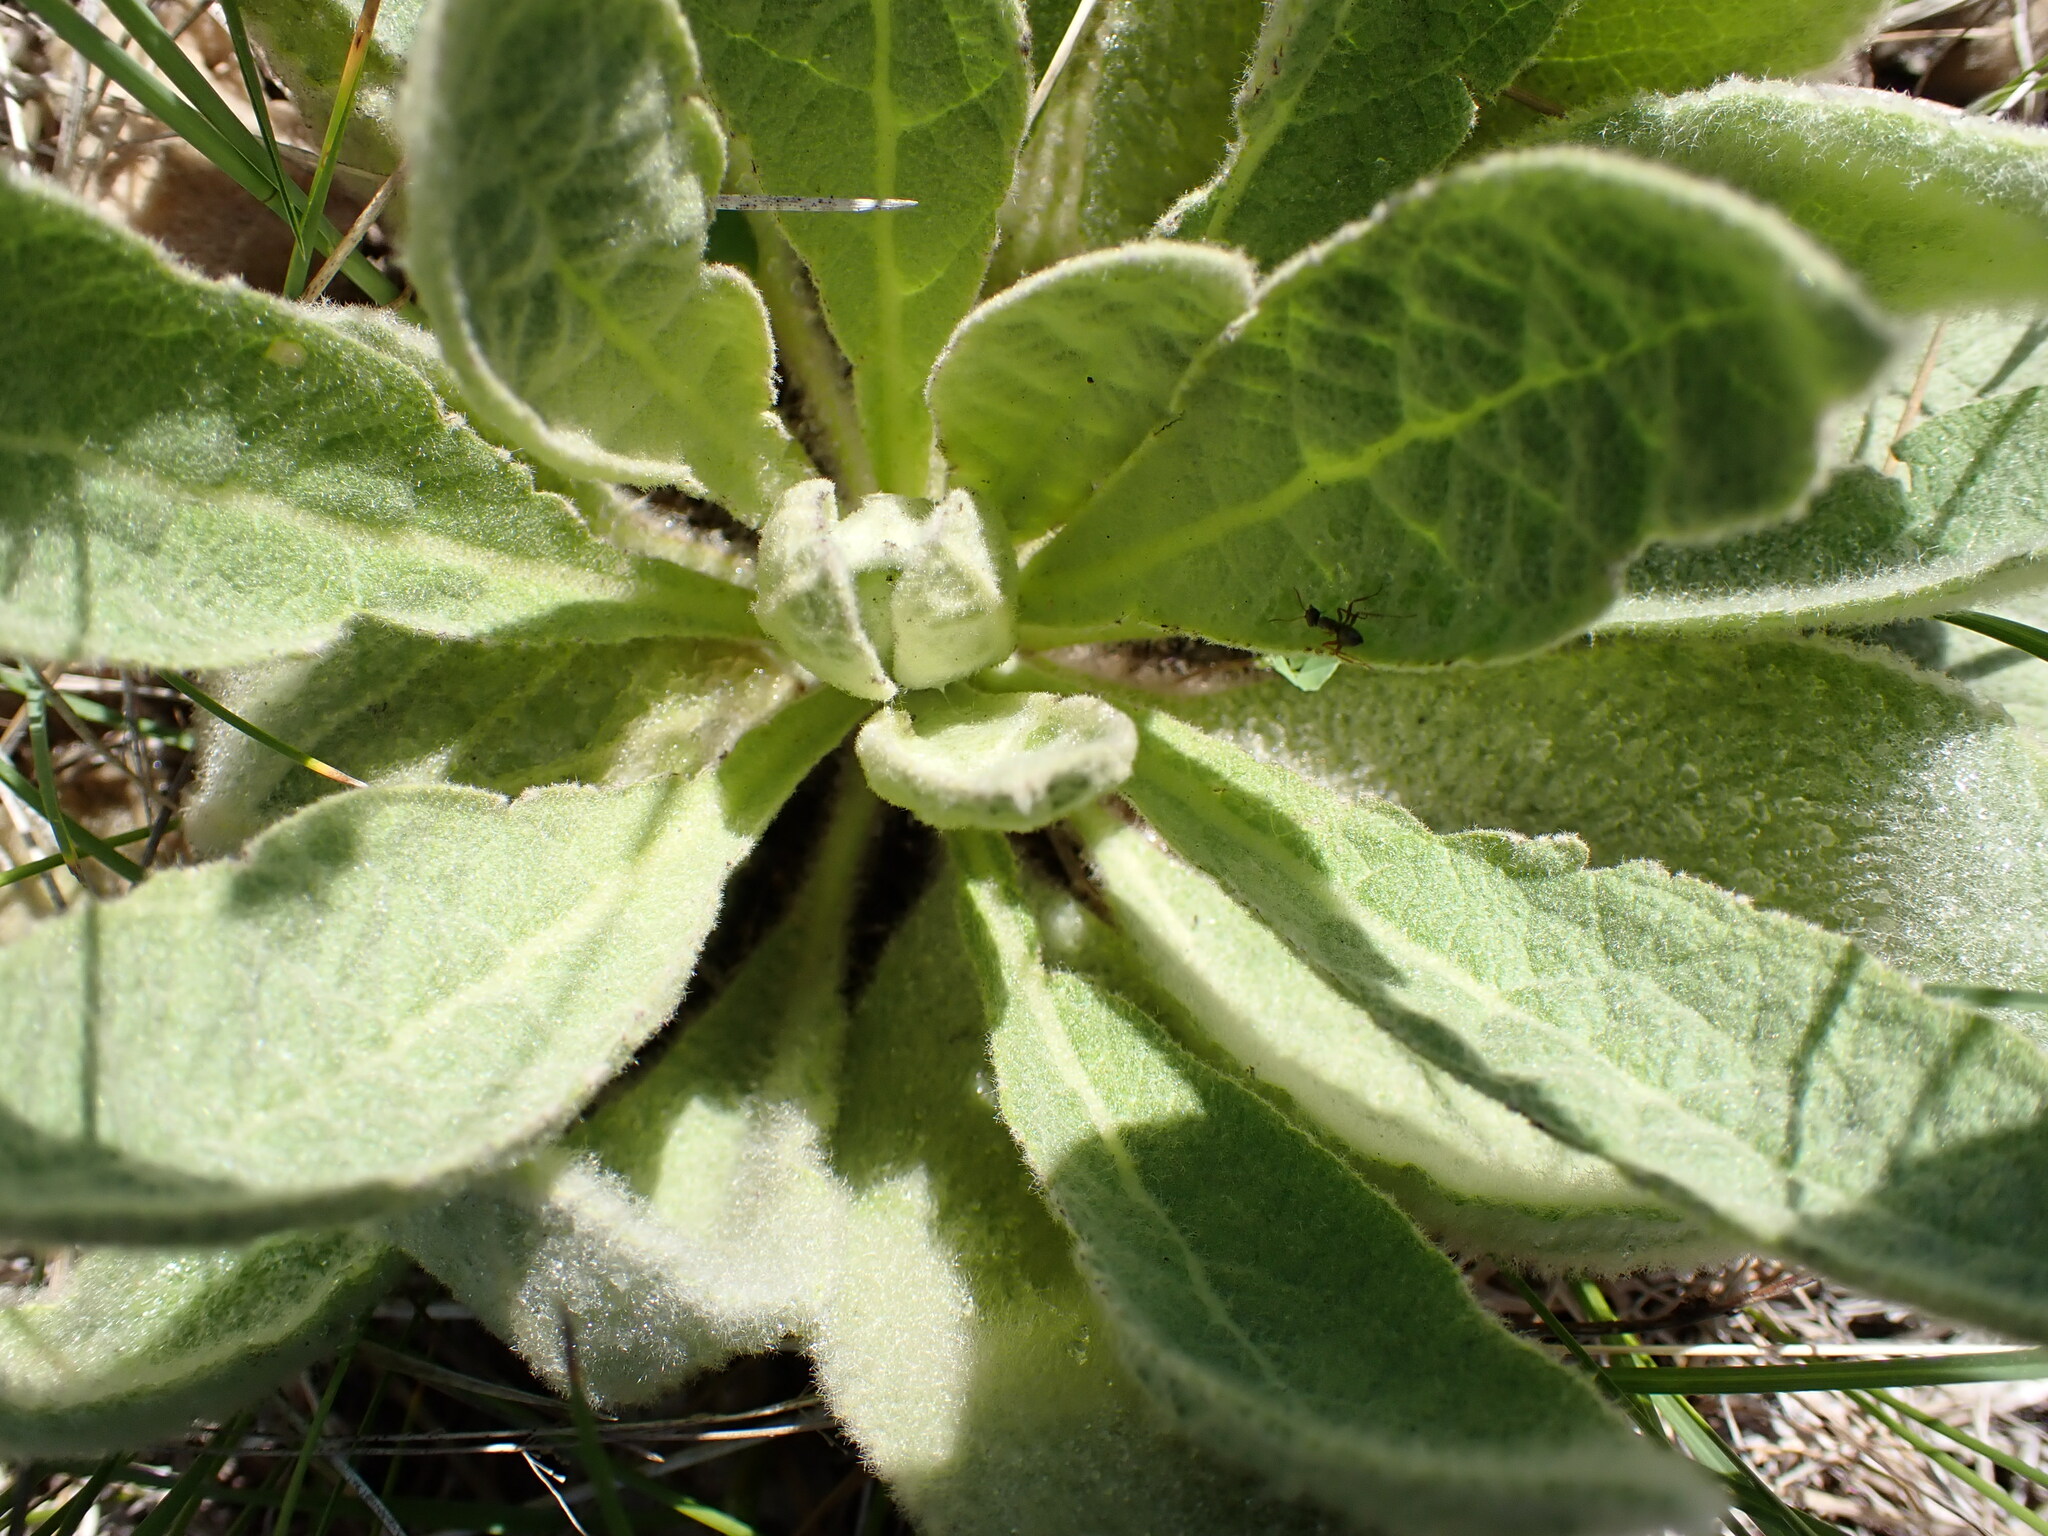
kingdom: Plantae
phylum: Tracheophyta
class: Magnoliopsida
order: Lamiales
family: Scrophulariaceae
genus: Verbascum
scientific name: Verbascum thapsus
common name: Common mullein
